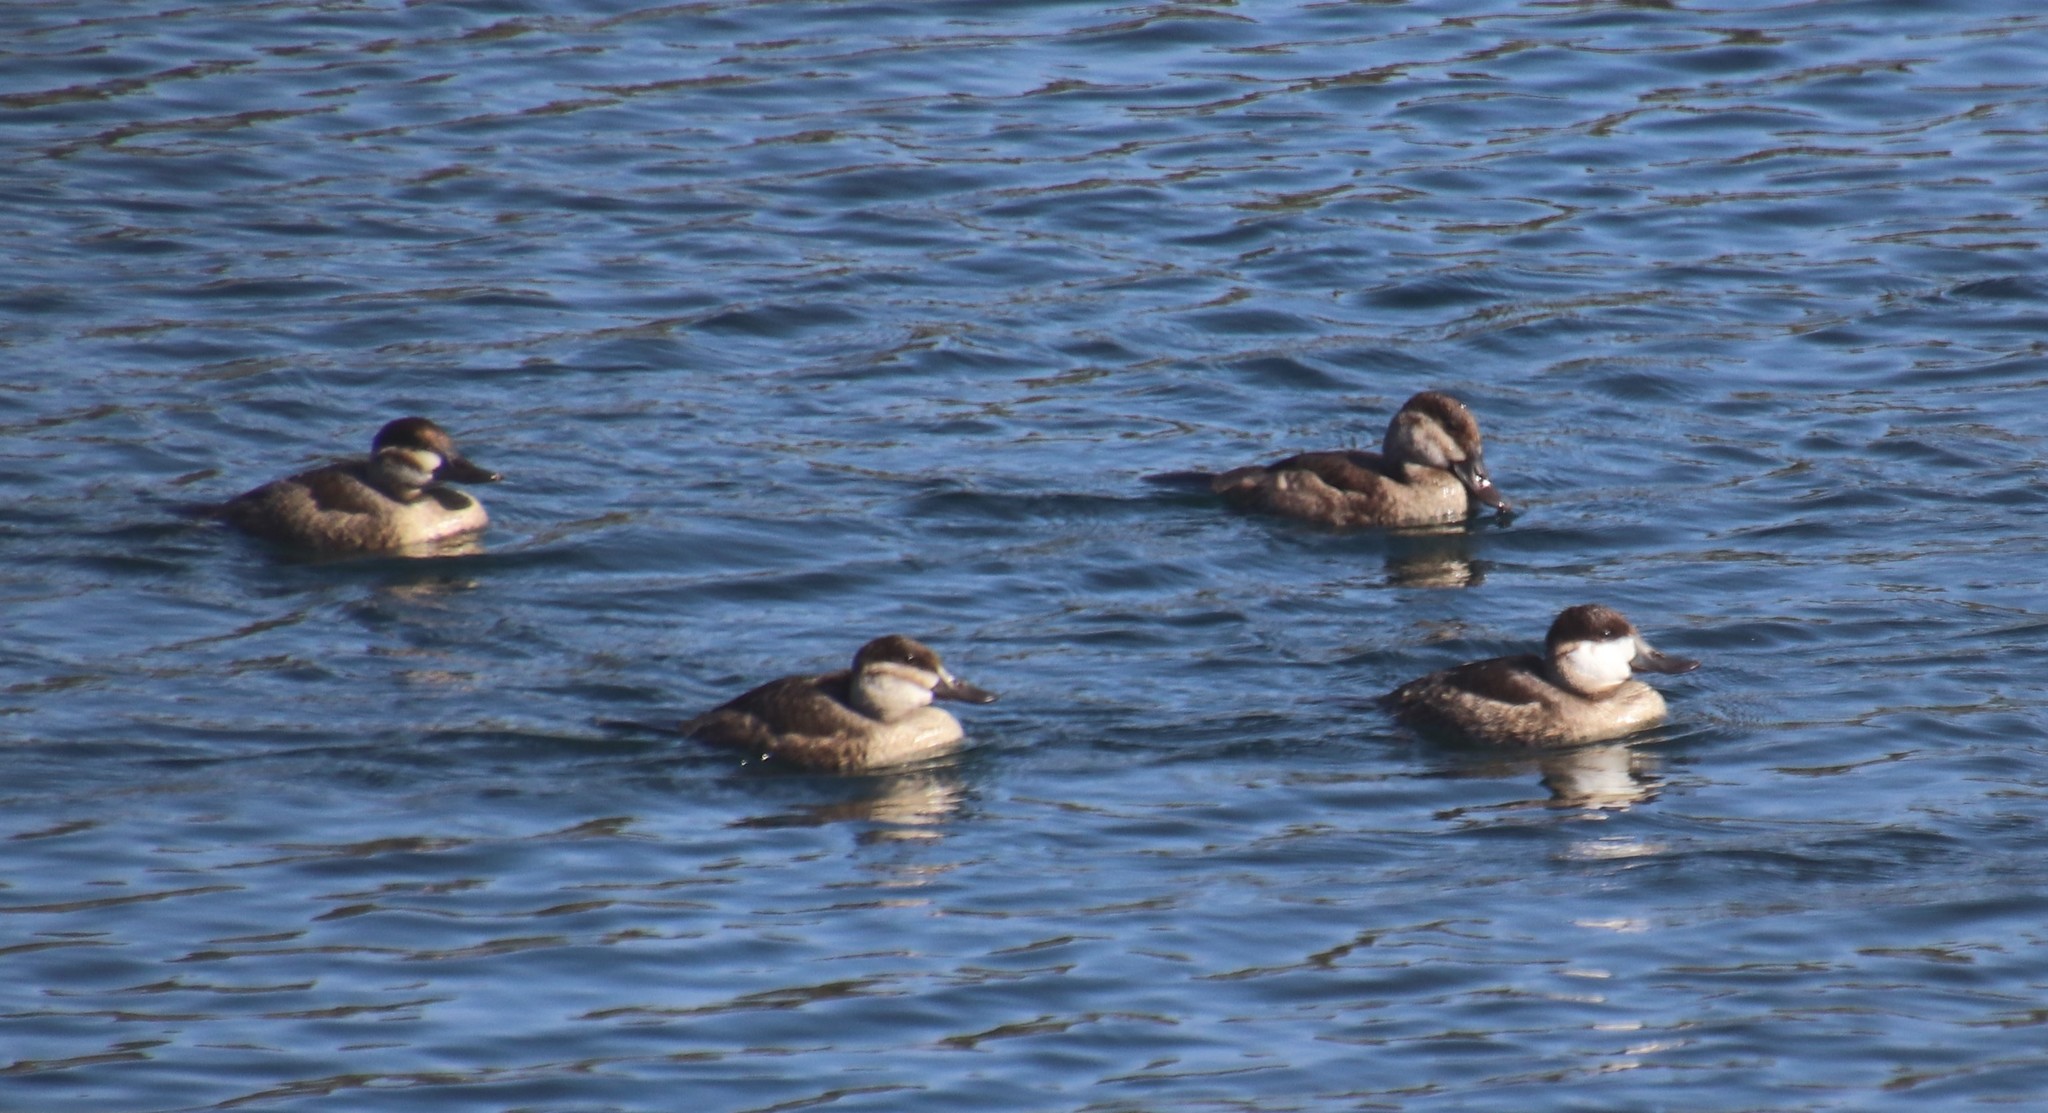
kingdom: Animalia
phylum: Chordata
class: Aves
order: Anseriformes
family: Anatidae
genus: Oxyura
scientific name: Oxyura jamaicensis
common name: Ruddy duck
